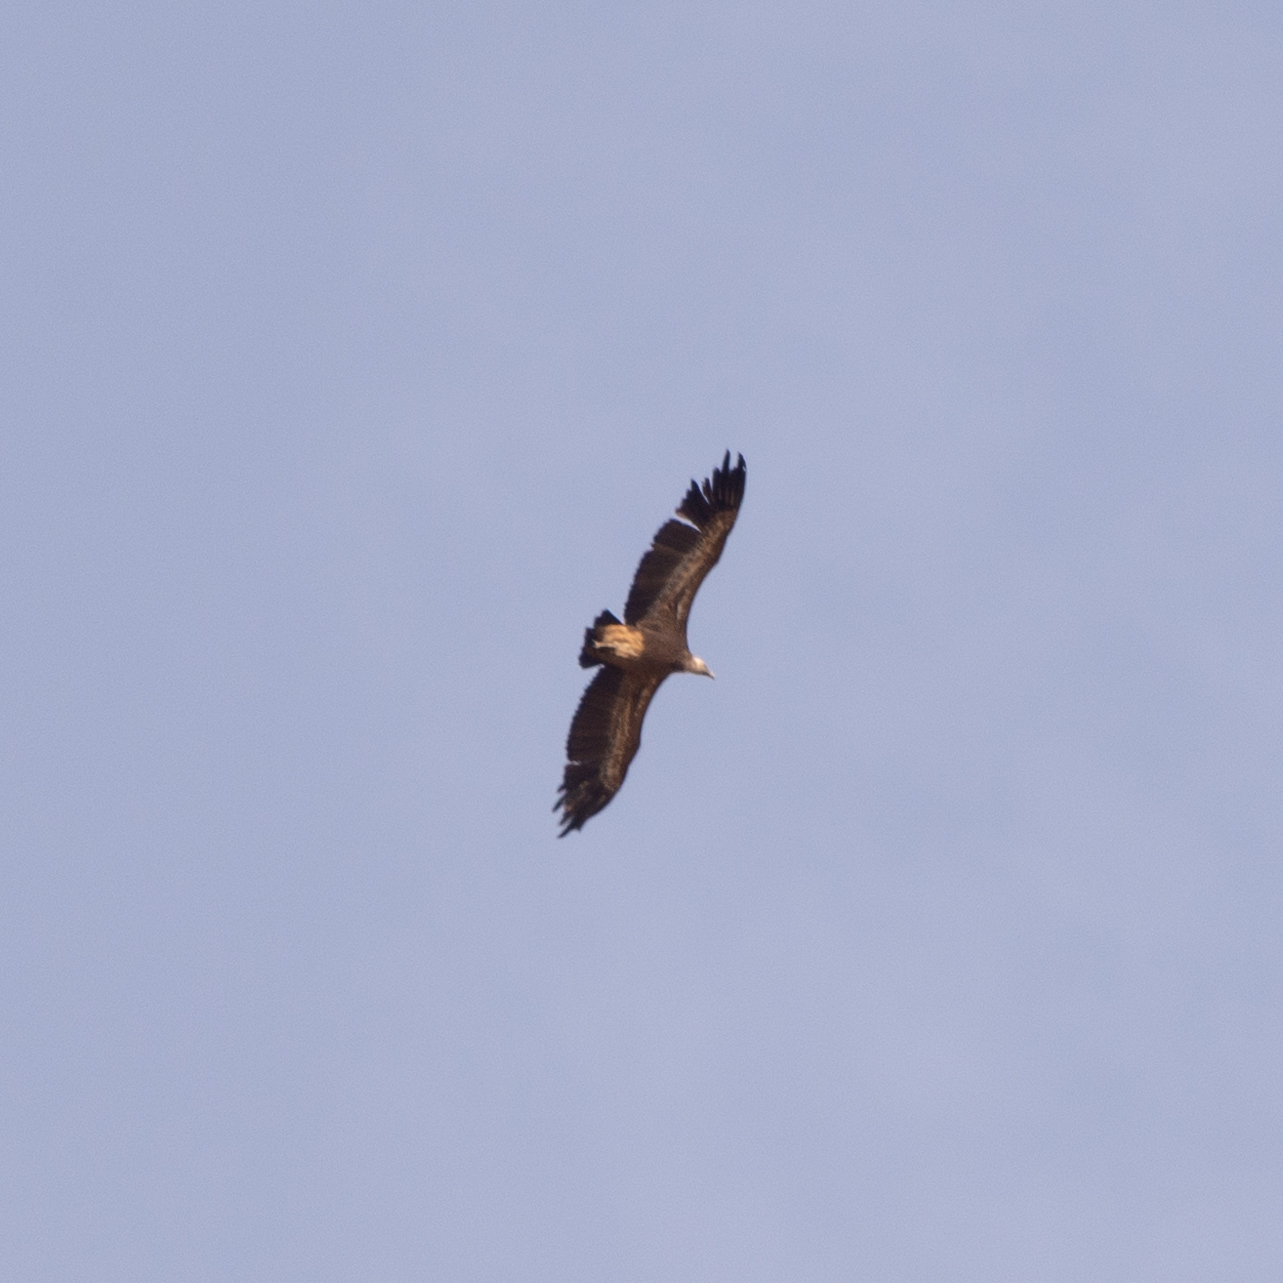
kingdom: Animalia
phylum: Chordata
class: Aves
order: Accipitriformes
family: Accipitridae
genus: Gyps
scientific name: Gyps fulvus
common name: Griffon vulture
